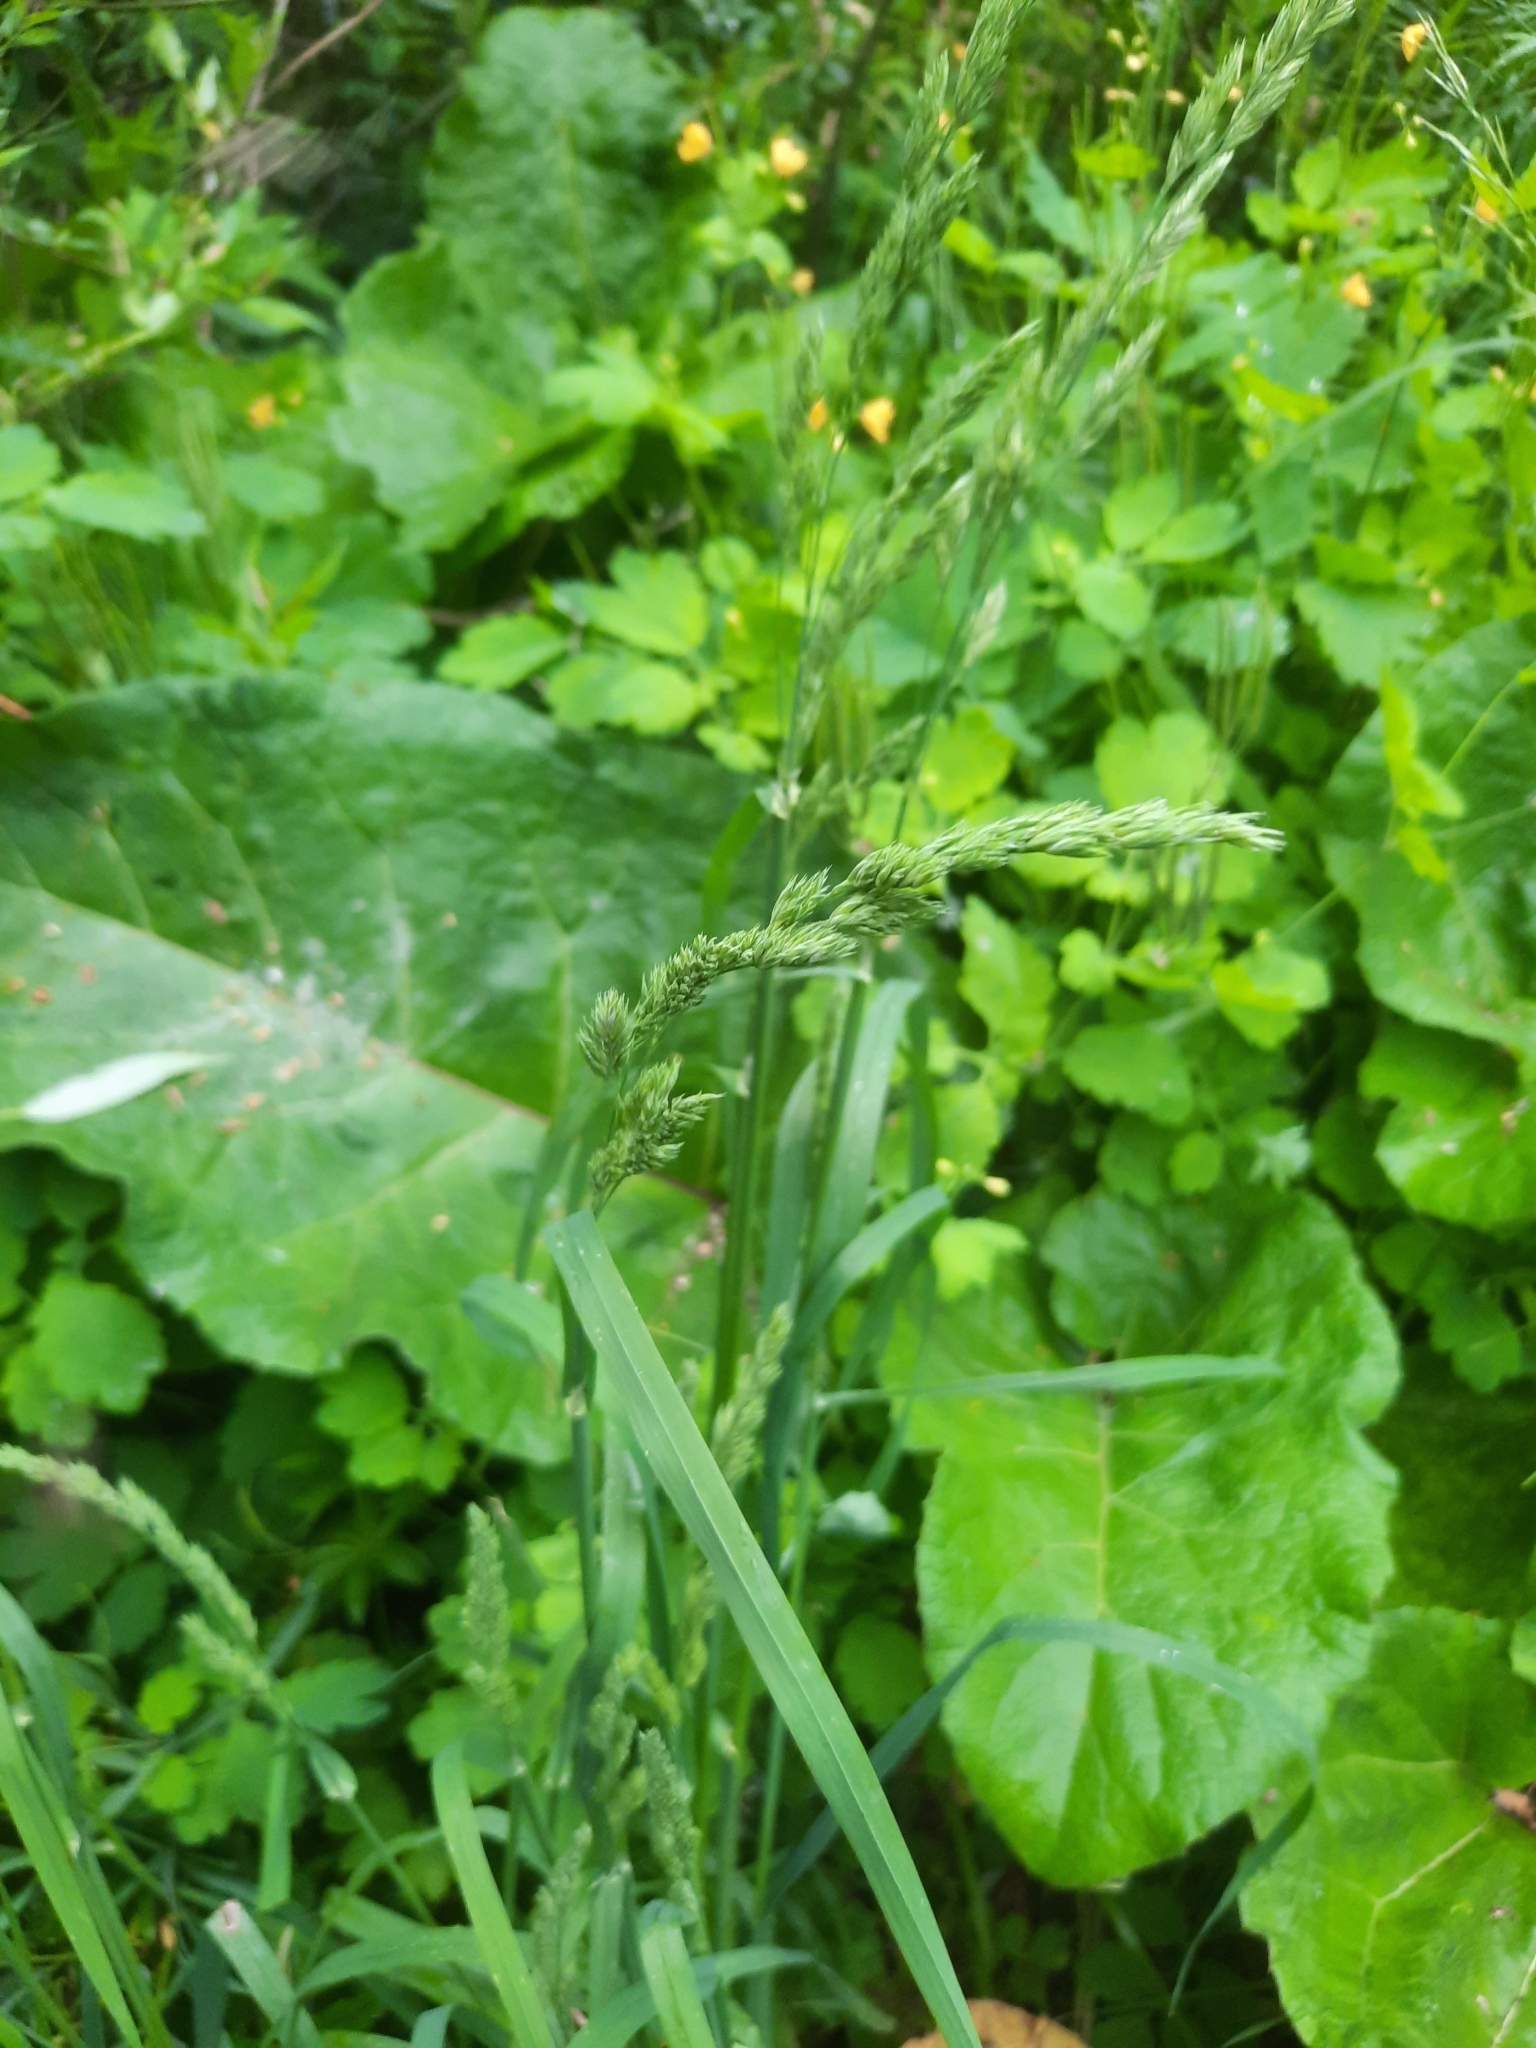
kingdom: Plantae
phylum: Tracheophyta
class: Liliopsida
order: Poales
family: Poaceae
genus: Dactylis
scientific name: Dactylis glomerata
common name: Orchardgrass
